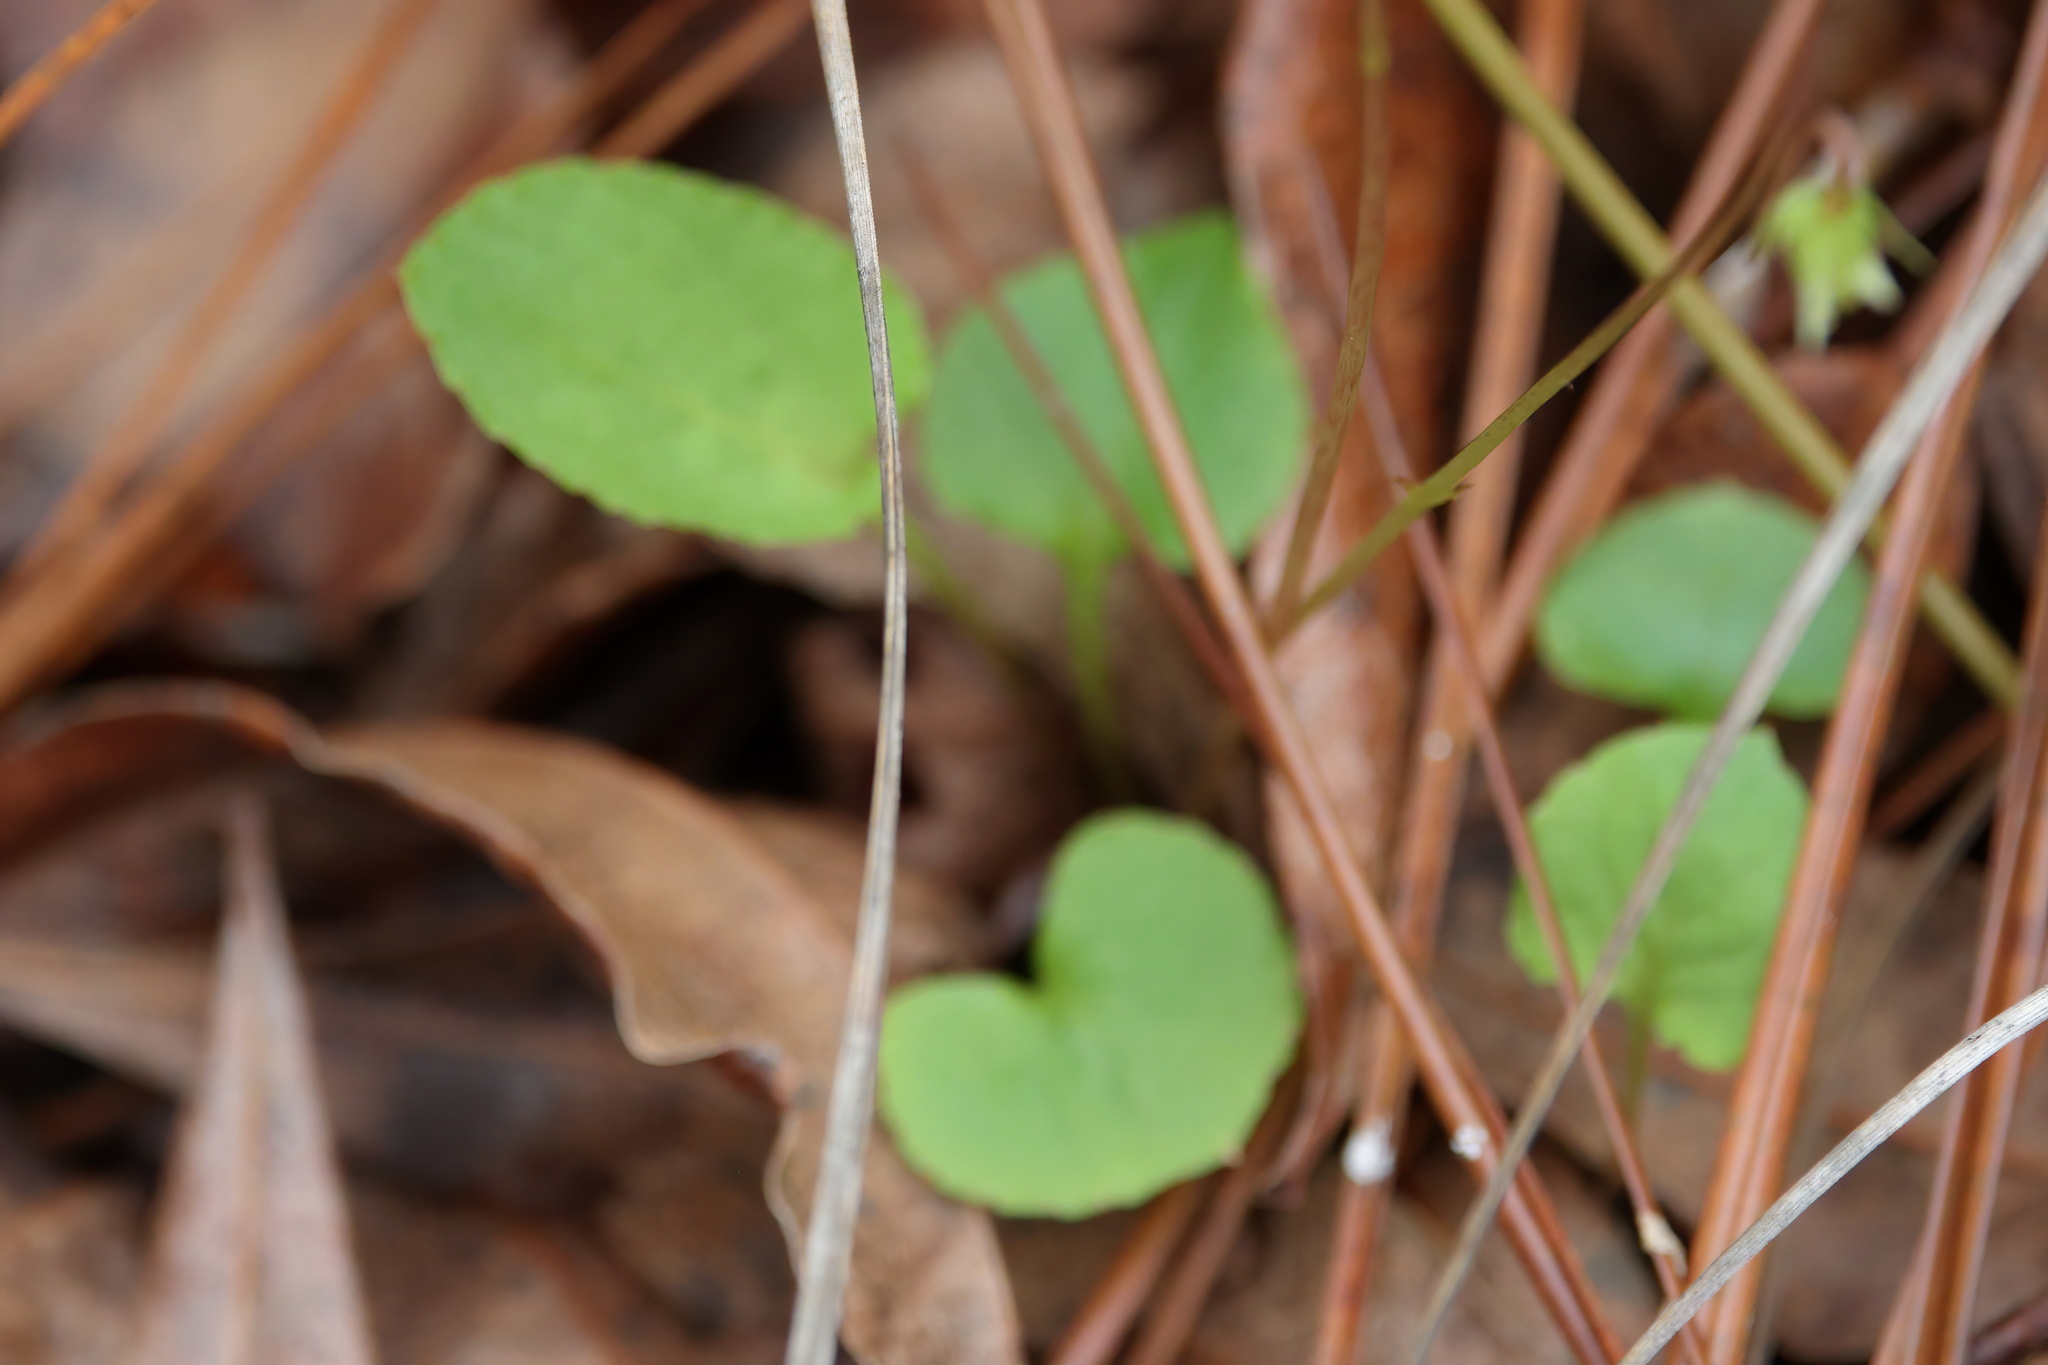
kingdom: Plantae
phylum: Tracheophyta
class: Magnoliopsida
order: Malpighiales
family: Violaceae
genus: Viola
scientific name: Viola primulifolia
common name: Primrose-leaf violet
